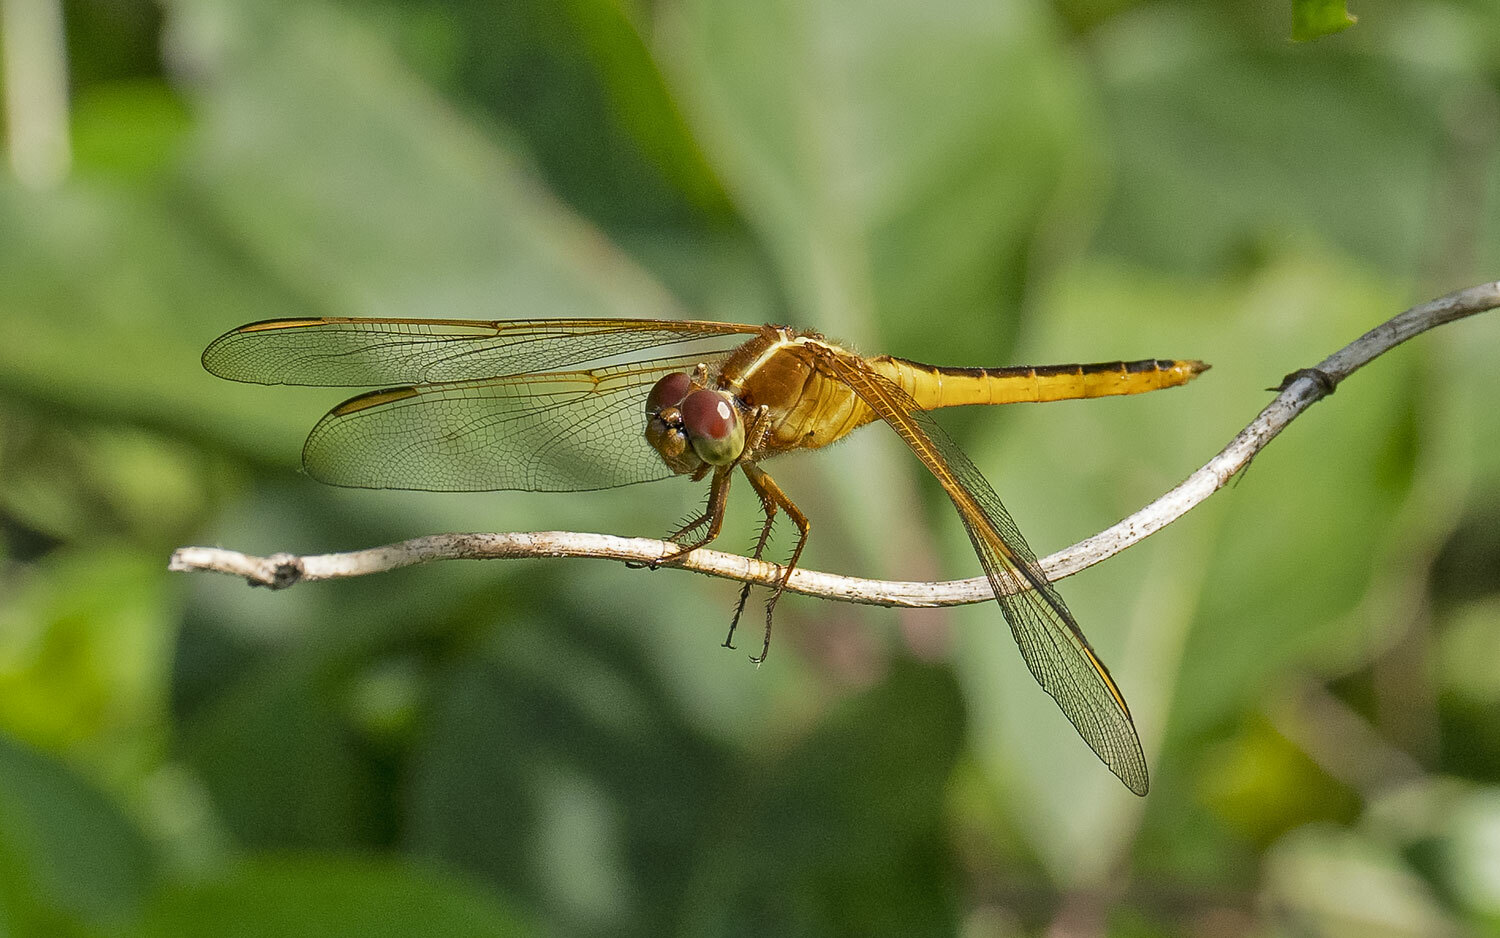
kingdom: Animalia
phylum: Arthropoda
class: Insecta
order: Odonata
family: Libellulidae
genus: Libellula
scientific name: Libellula needhami
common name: Needham's skimmer
